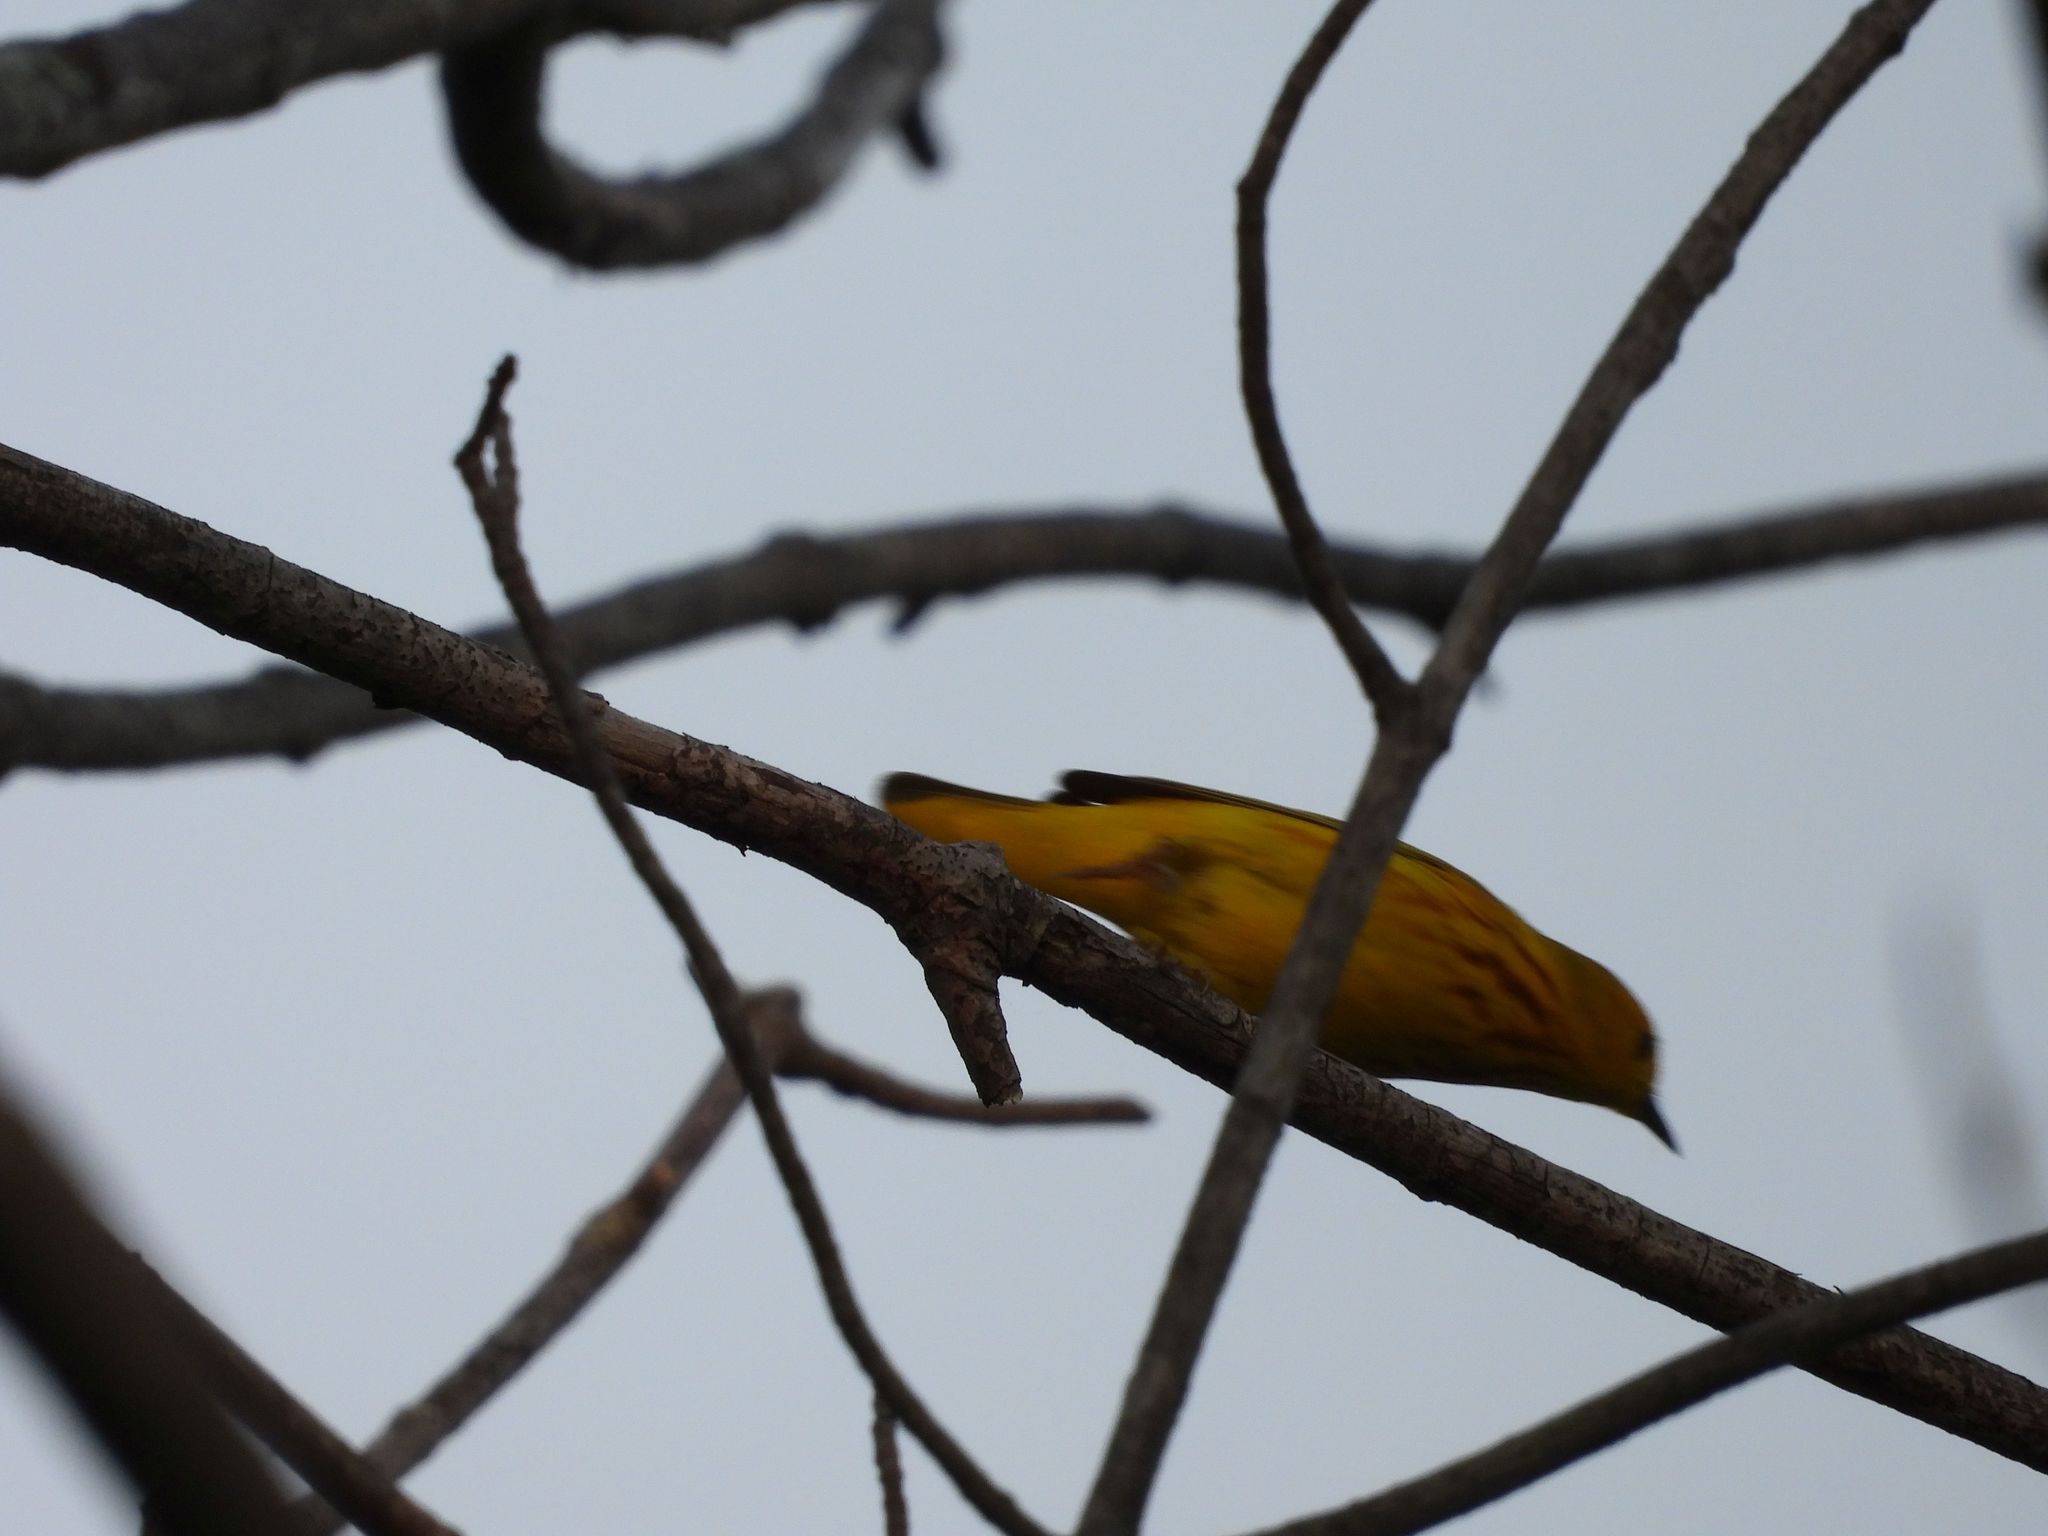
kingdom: Animalia
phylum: Chordata
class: Aves
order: Passeriformes
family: Parulidae
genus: Setophaga
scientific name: Setophaga petechia
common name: Yellow warbler
